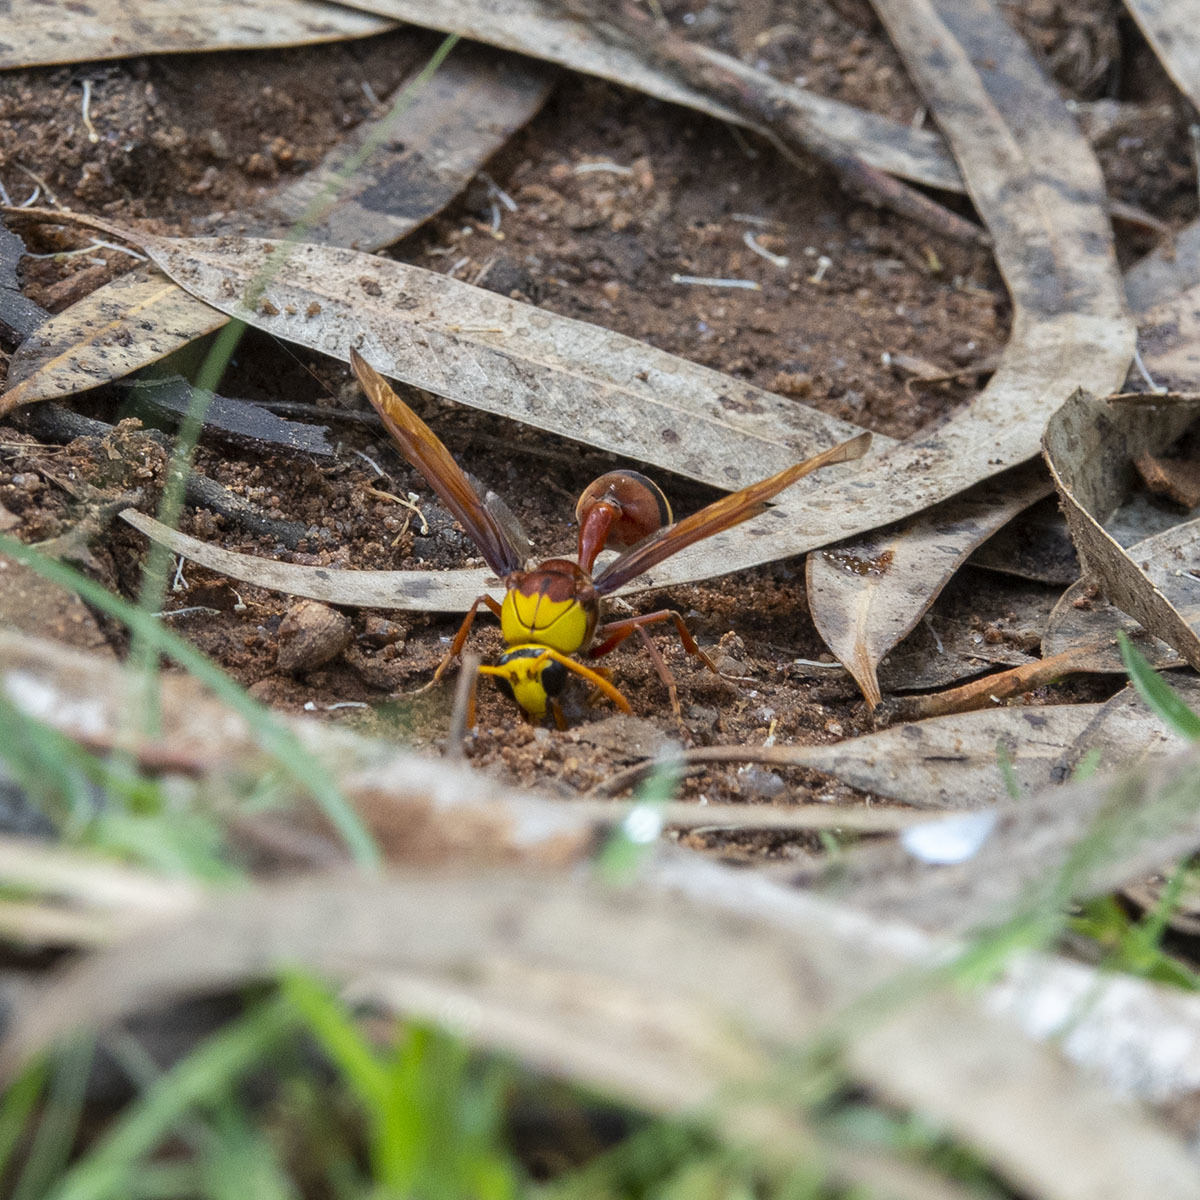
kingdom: Animalia
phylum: Arthropoda
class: Insecta
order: Hymenoptera
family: Eumenidae
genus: Delta
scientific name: Delta pyriforme
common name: Wasp
